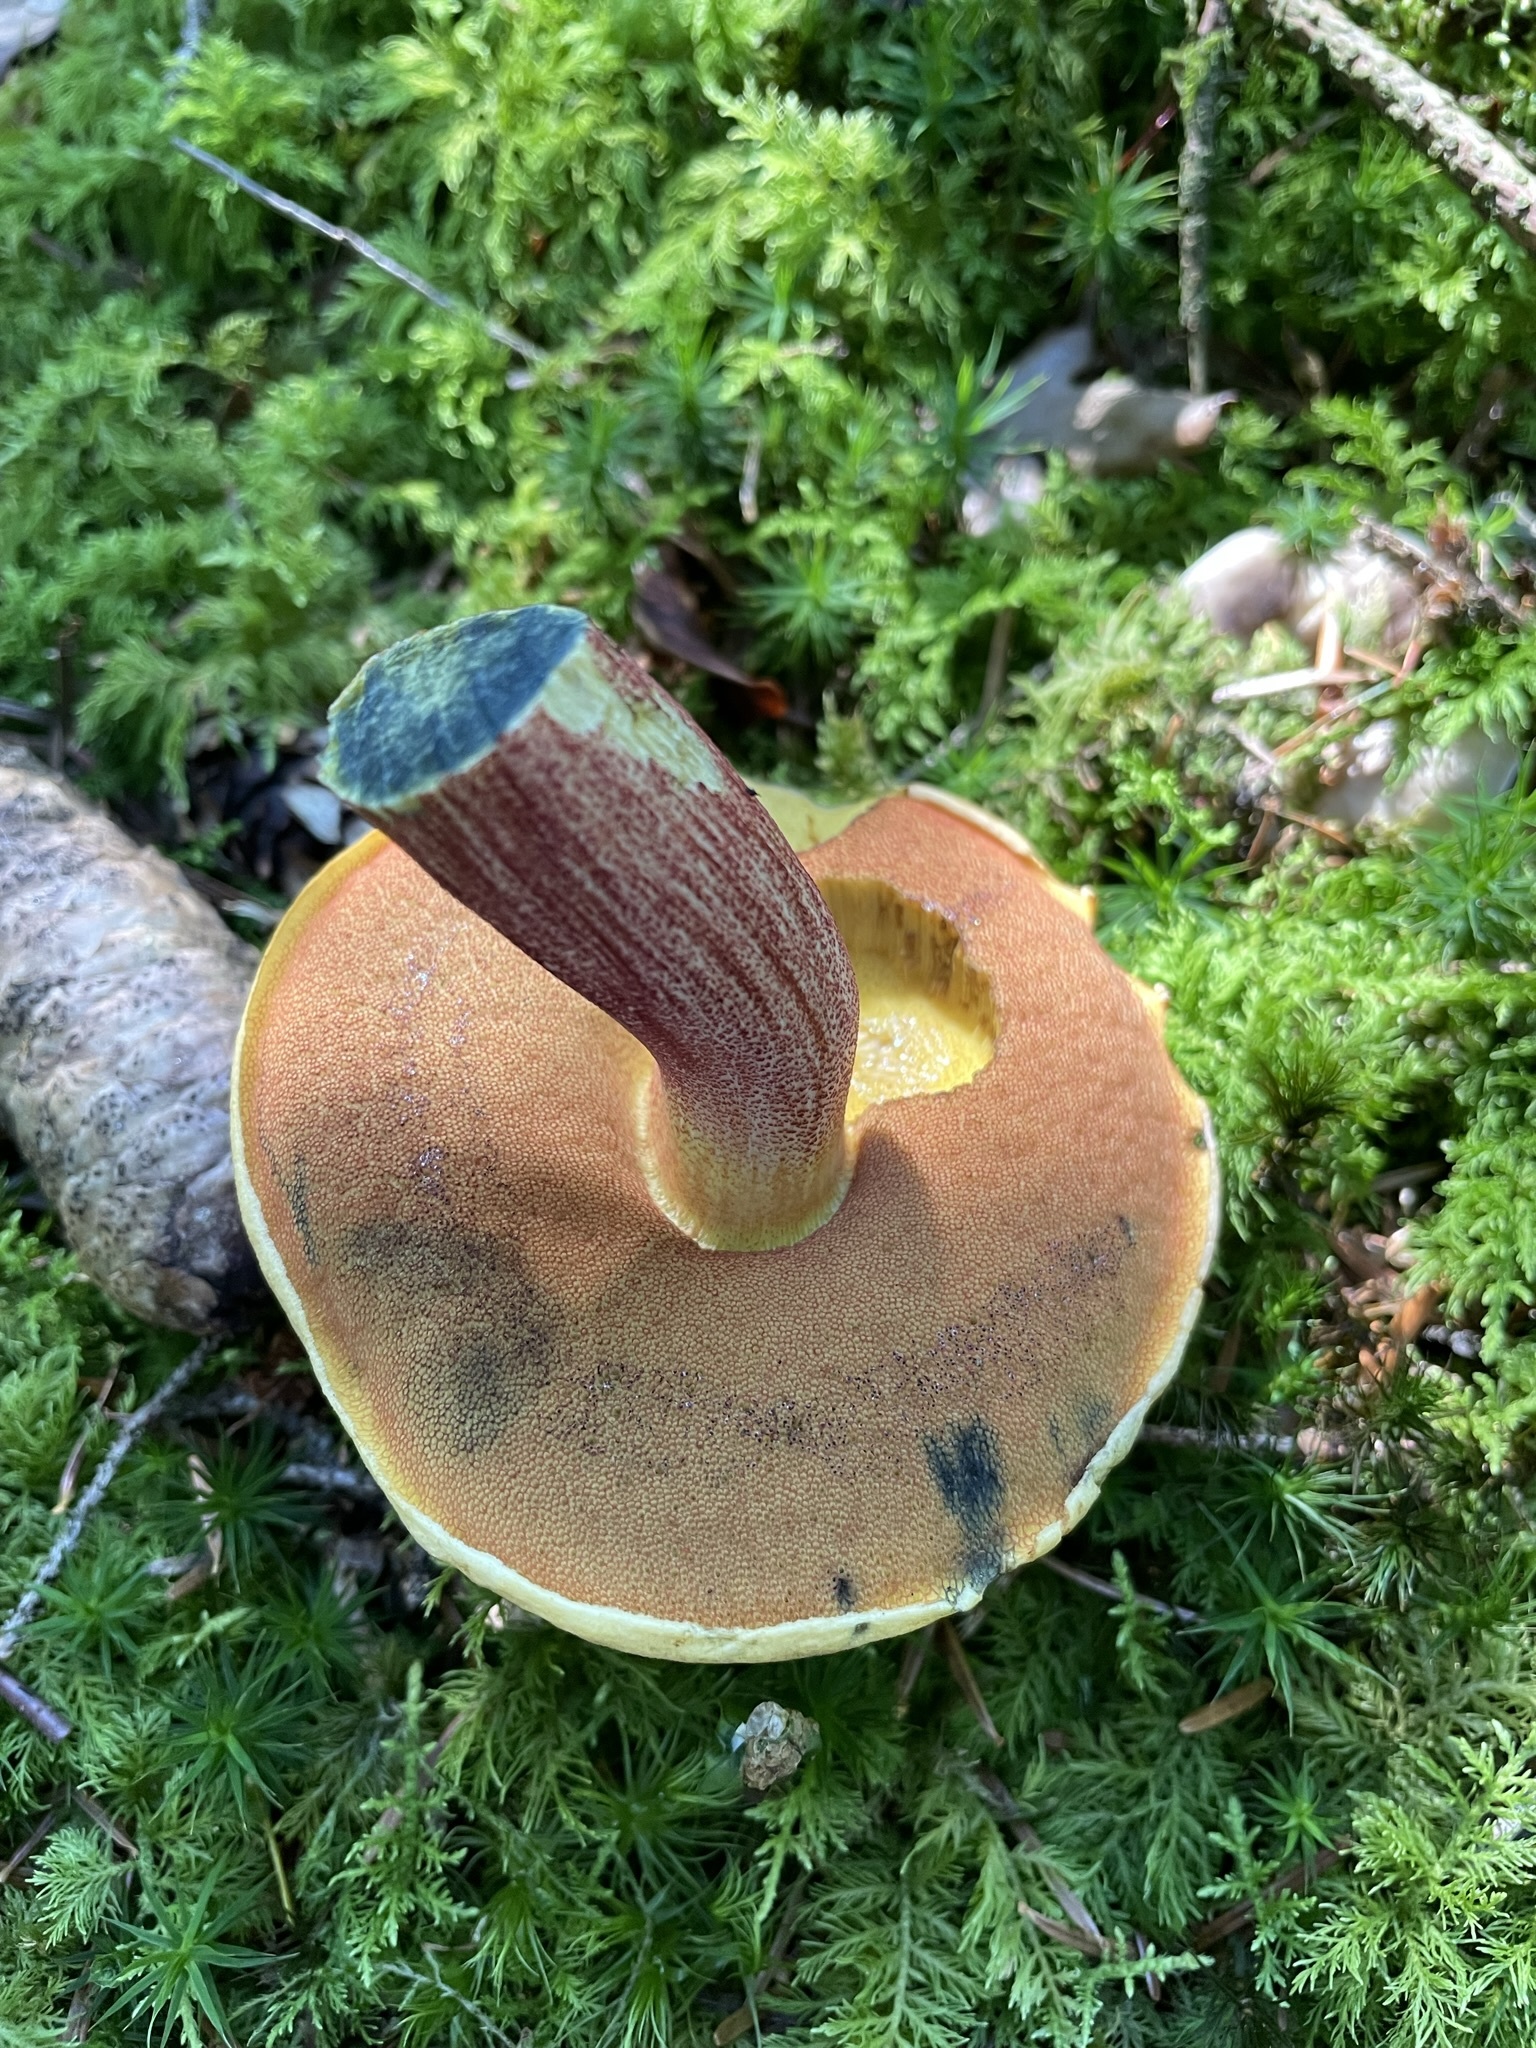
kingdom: Fungi
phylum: Basidiomycota
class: Agaricomycetes
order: Boletales
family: Boletaceae
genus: Neoboletus
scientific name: Neoboletus luridiformis
